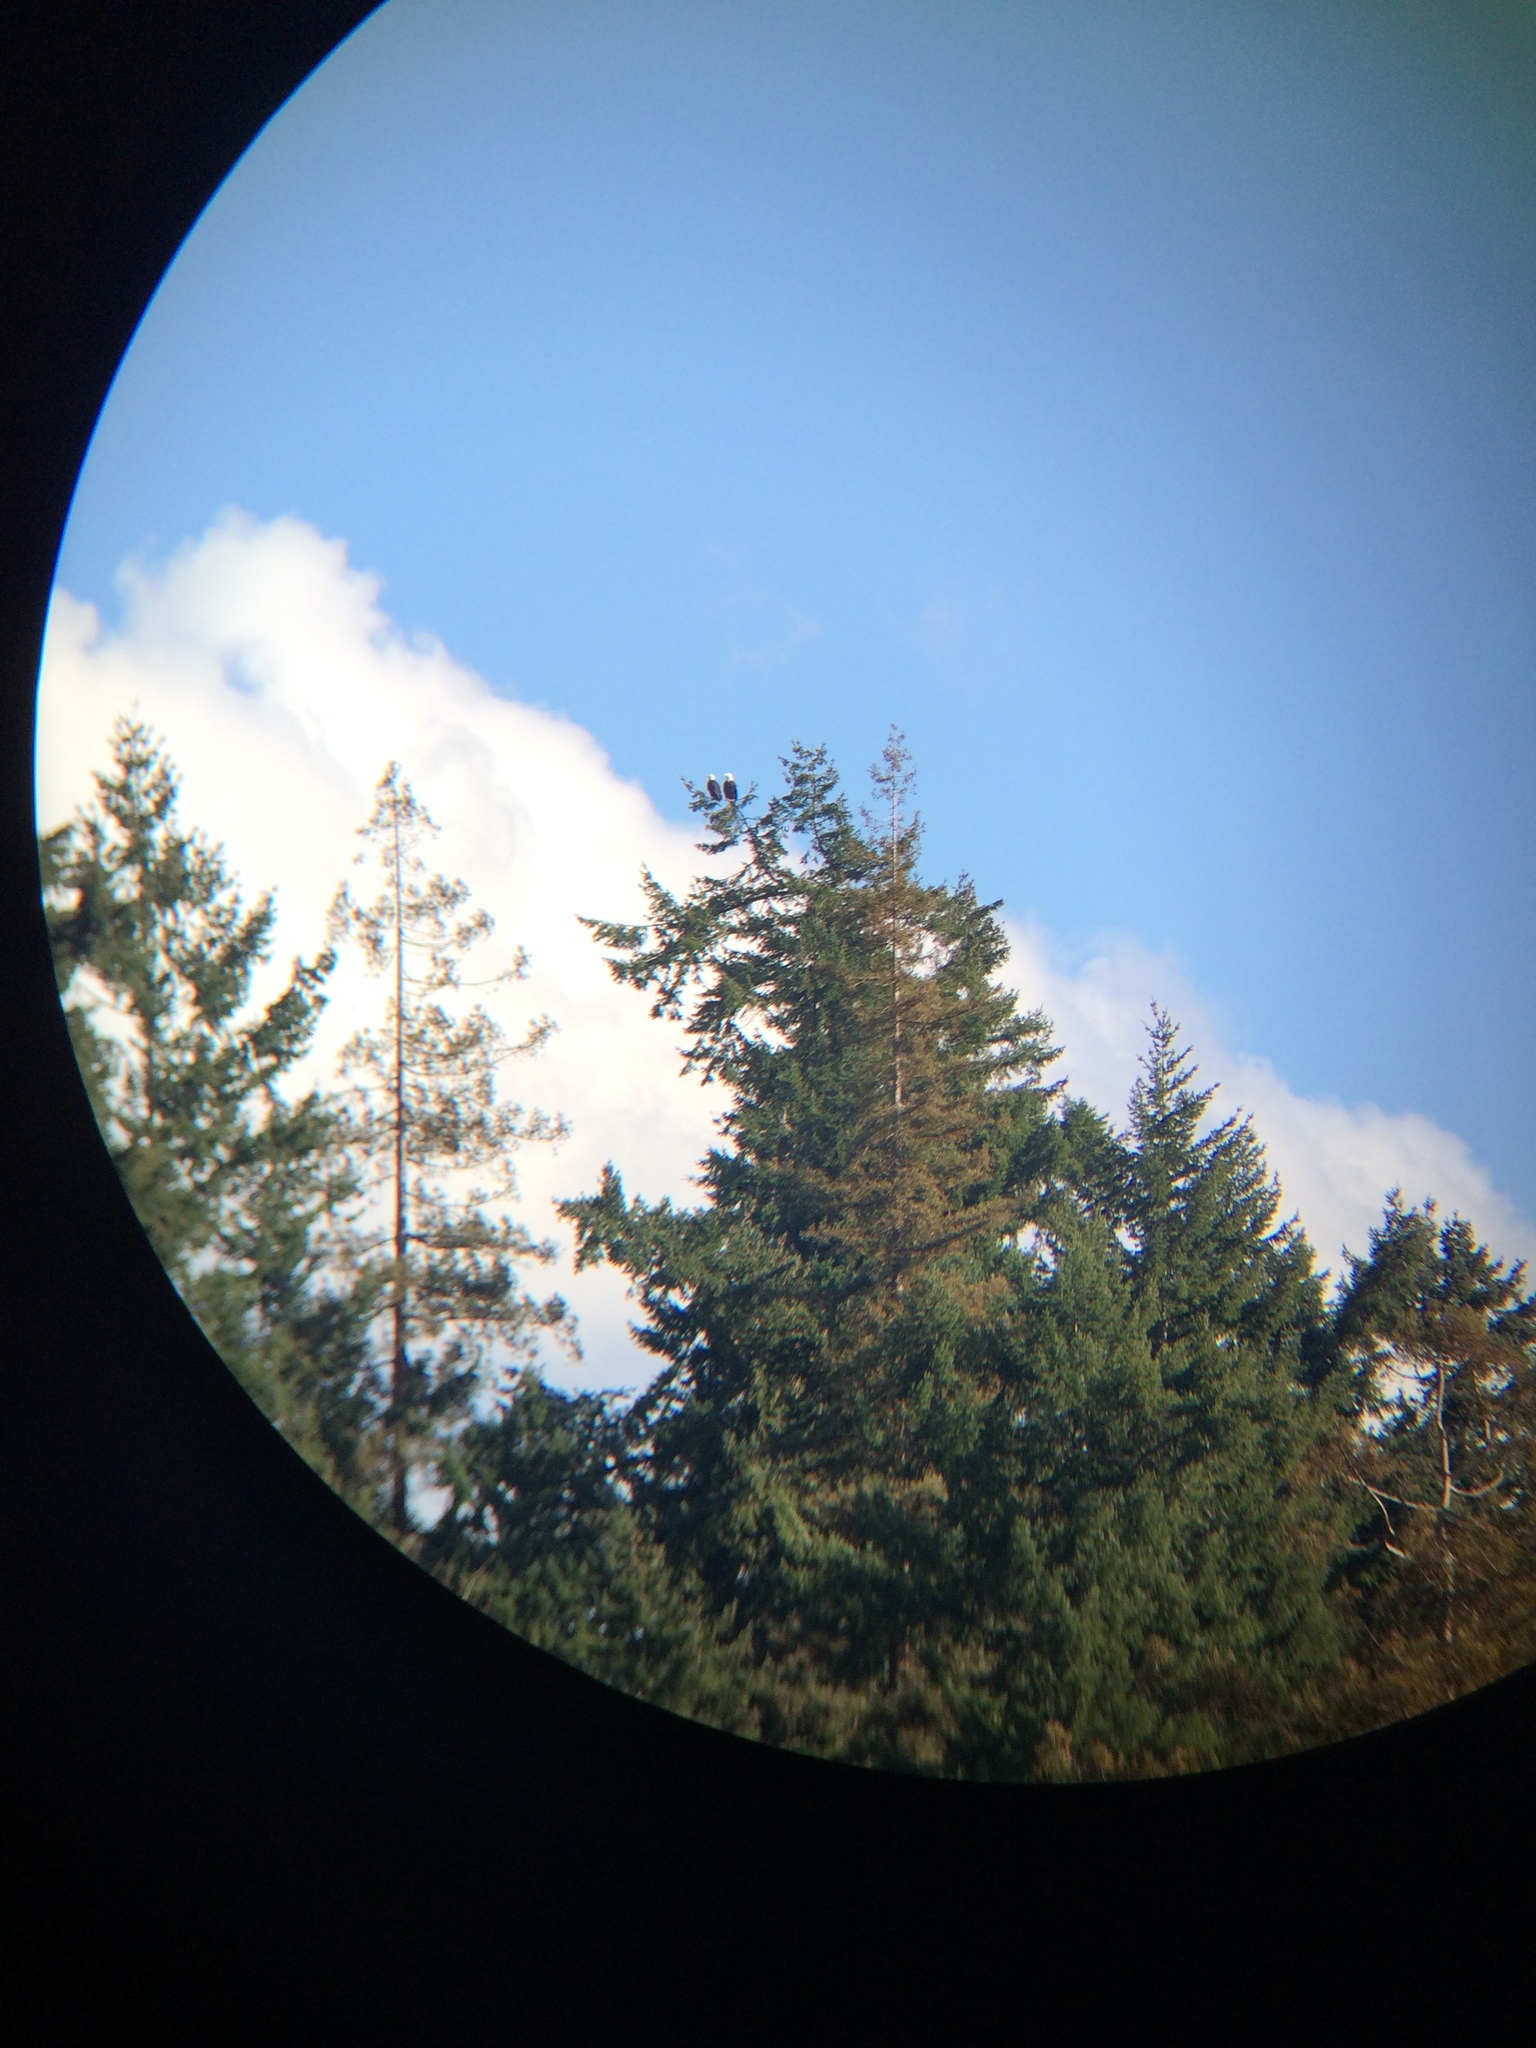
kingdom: Animalia
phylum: Chordata
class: Aves
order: Accipitriformes
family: Accipitridae
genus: Haliaeetus
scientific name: Haliaeetus leucocephalus
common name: Bald eagle
